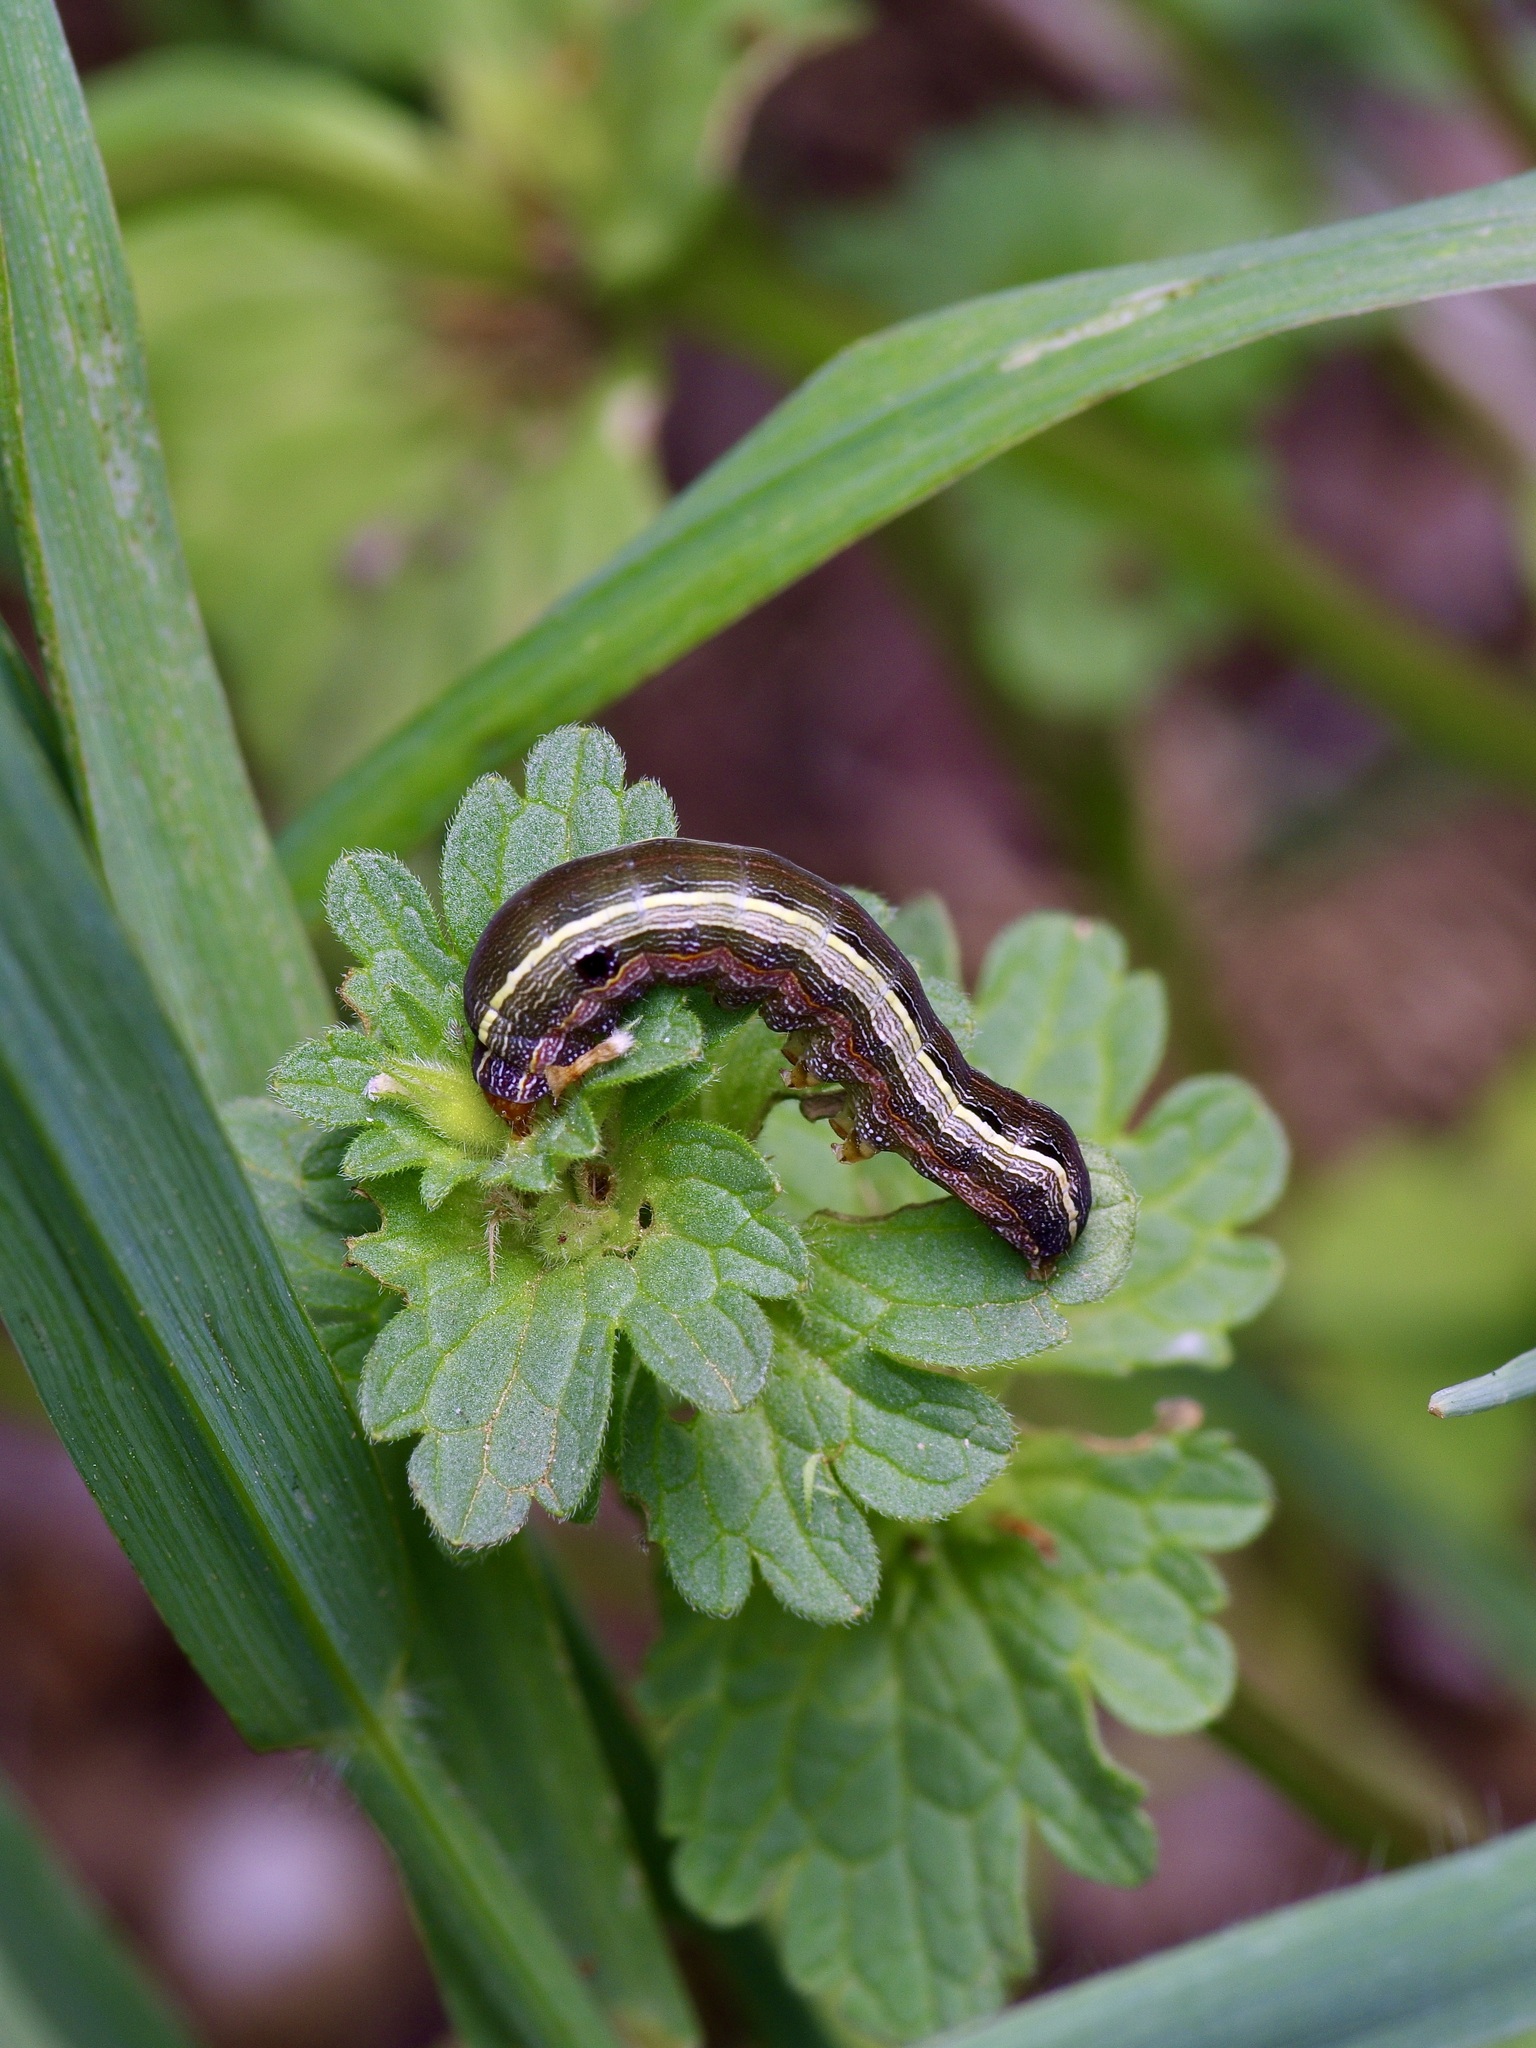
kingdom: Animalia
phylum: Arthropoda
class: Insecta
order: Lepidoptera
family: Noctuidae
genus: Spodoptera
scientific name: Spodoptera ornithogalli
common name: Yellow-striped armyworm
